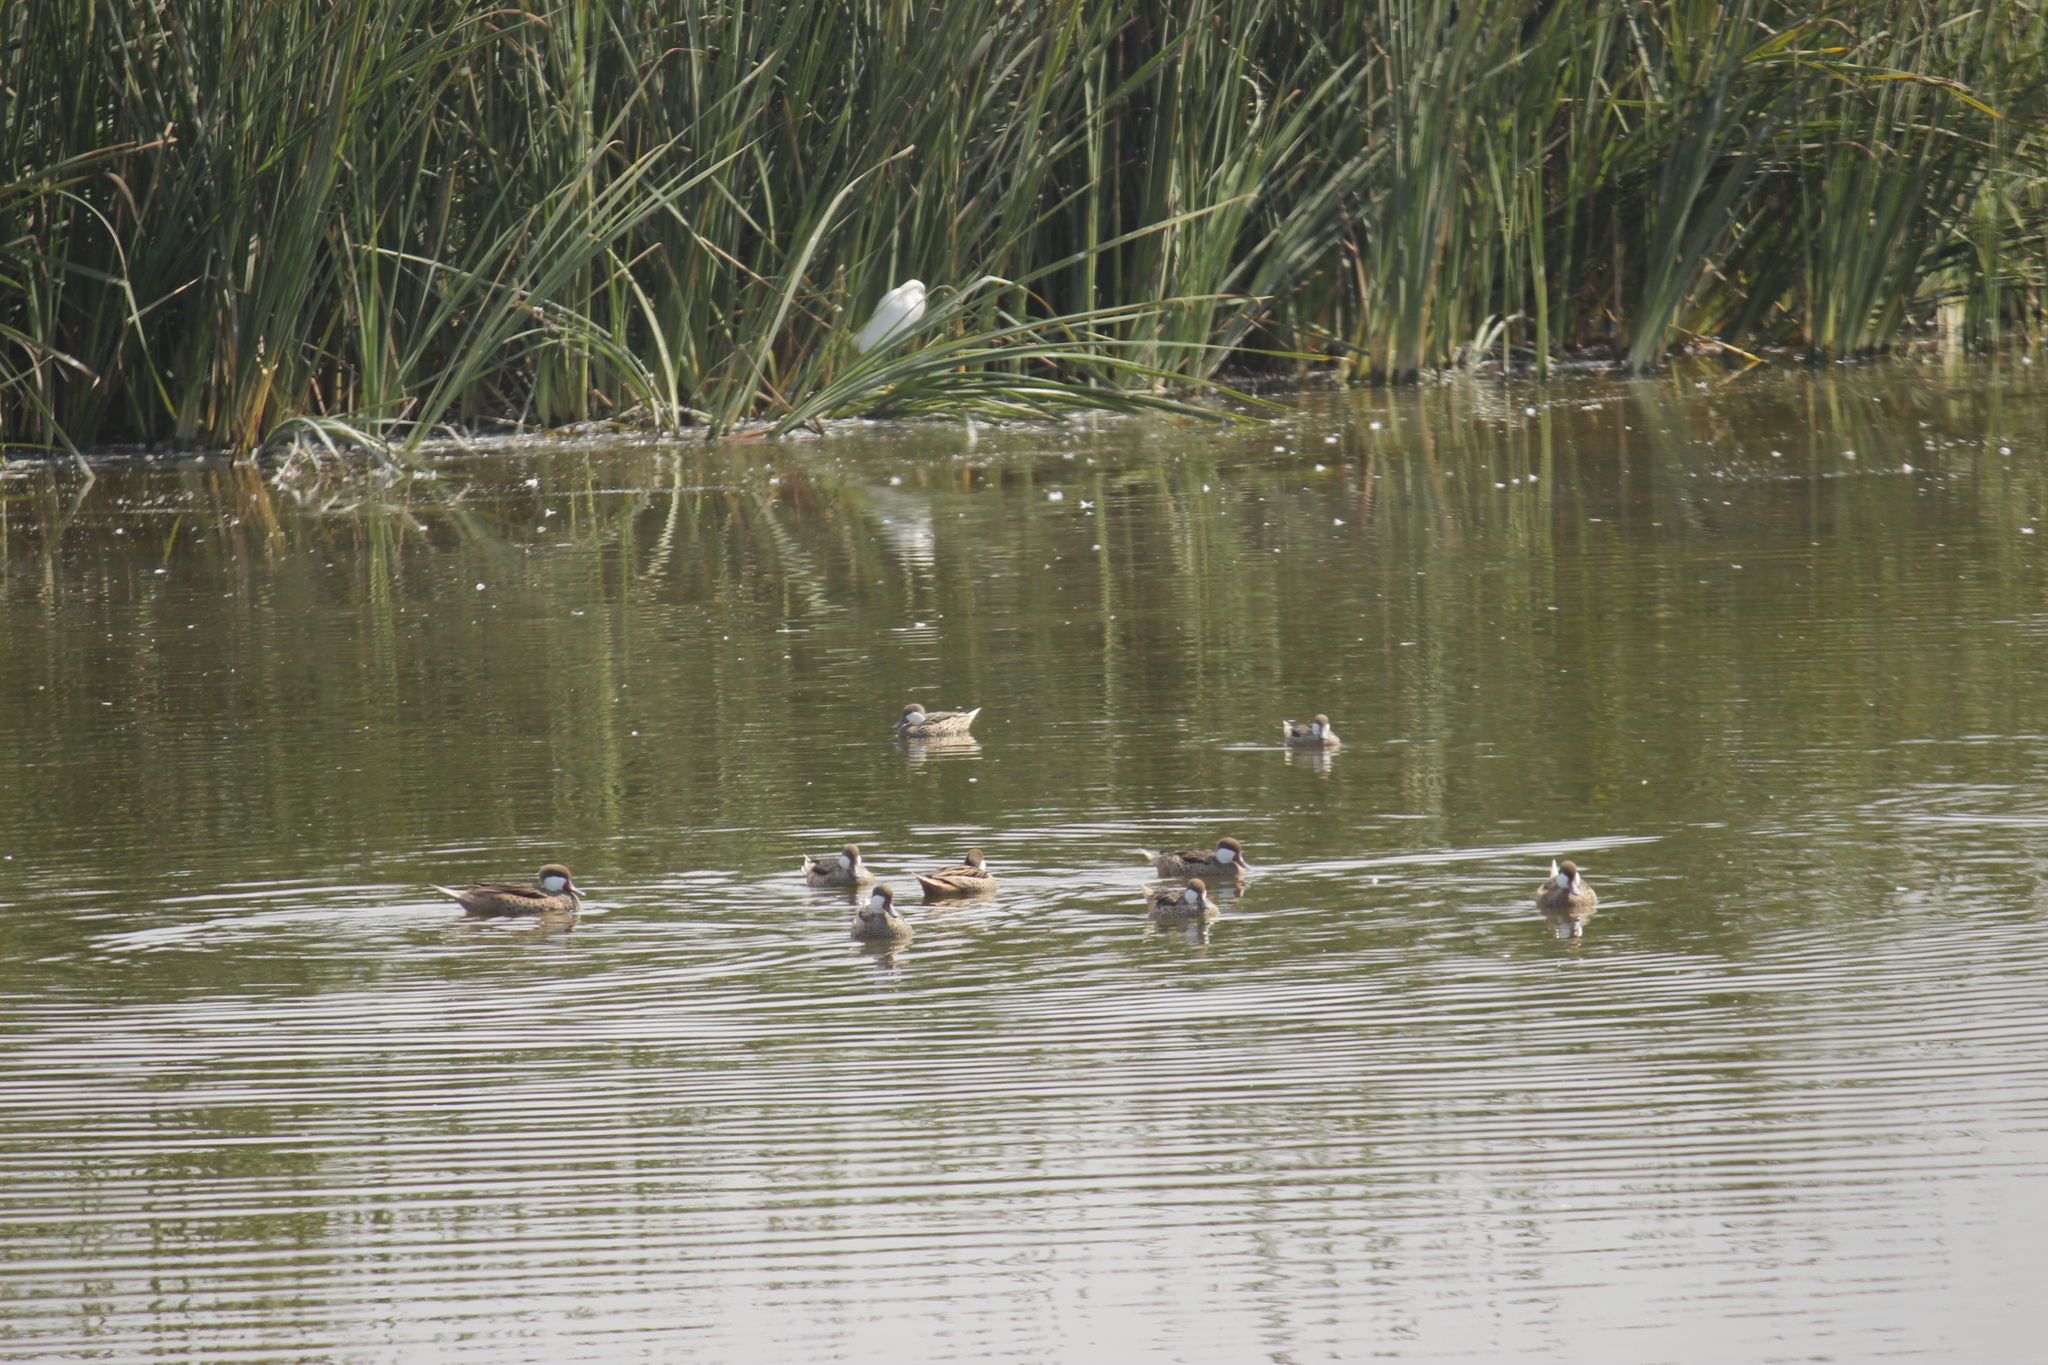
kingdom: Animalia
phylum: Chordata
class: Aves
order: Anseriformes
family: Anatidae
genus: Anas
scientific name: Anas bahamensis
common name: White-cheeked pintail
